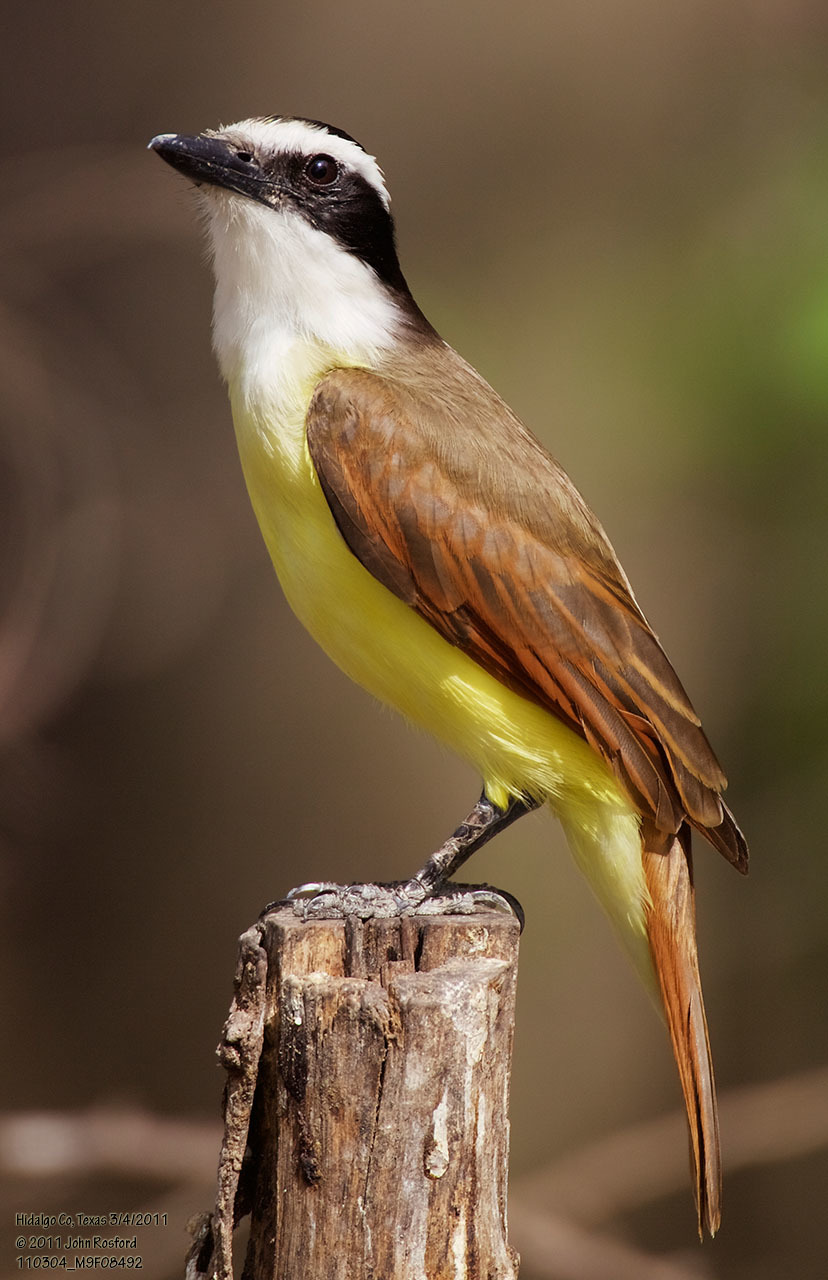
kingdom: Animalia
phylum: Chordata
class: Aves
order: Passeriformes
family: Tyrannidae
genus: Pitangus
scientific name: Pitangus sulphuratus
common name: Great kiskadee
